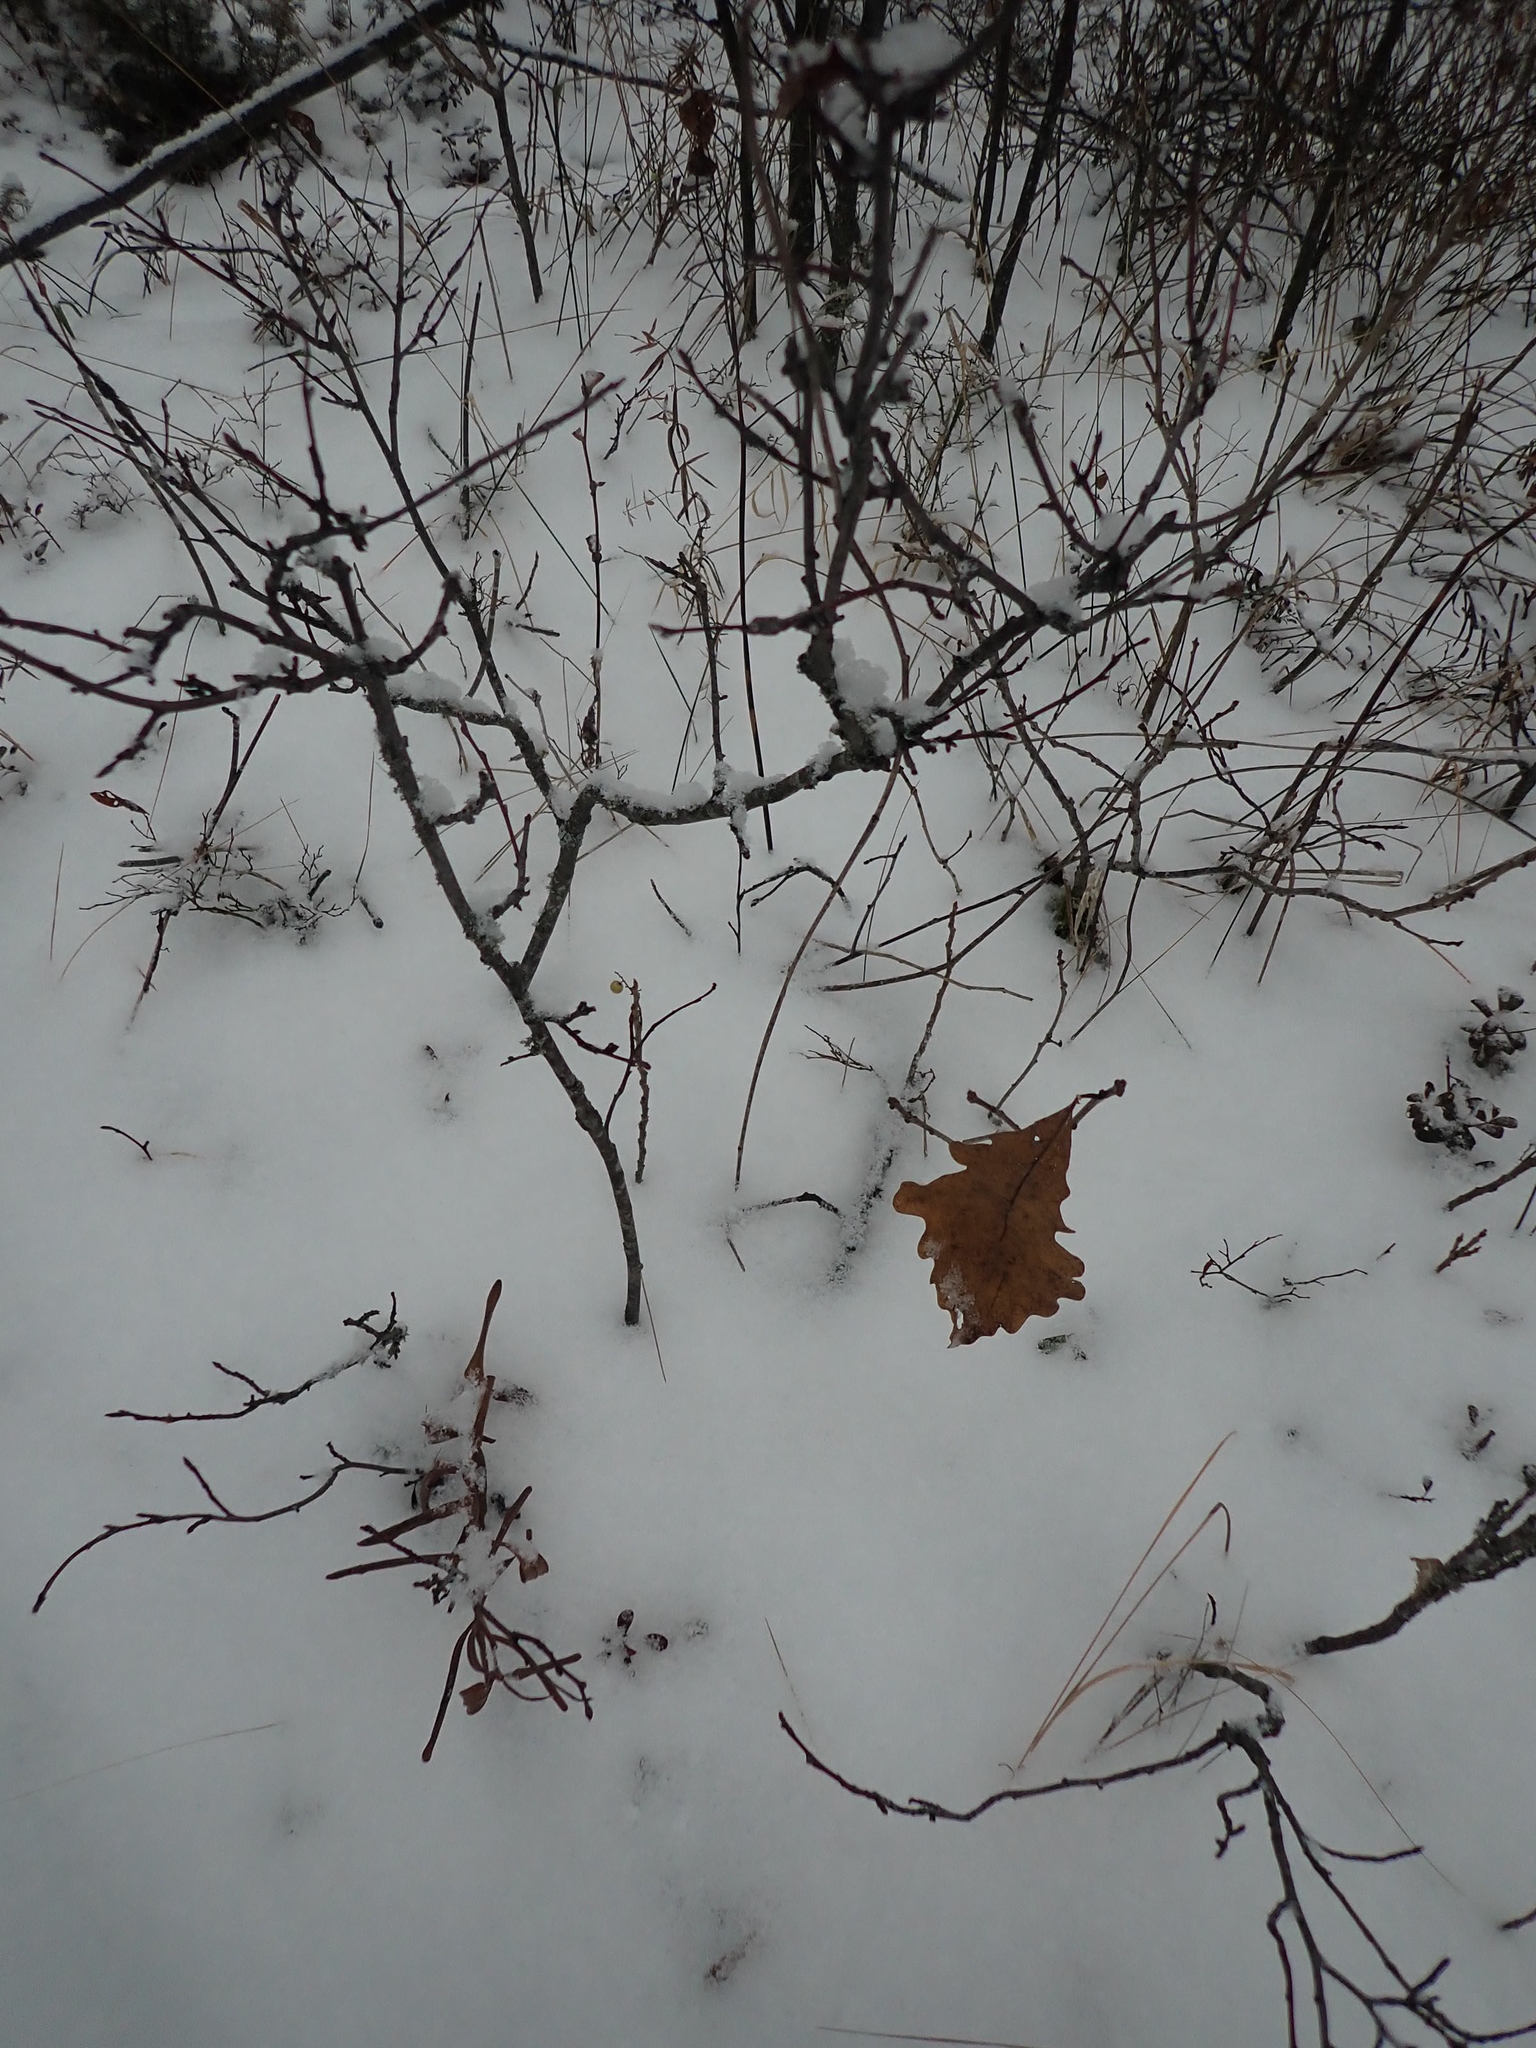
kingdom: Plantae
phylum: Tracheophyta
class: Magnoliopsida
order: Fagales
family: Fagaceae
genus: Quercus
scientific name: Quercus macrocarpa
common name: Bur oak
